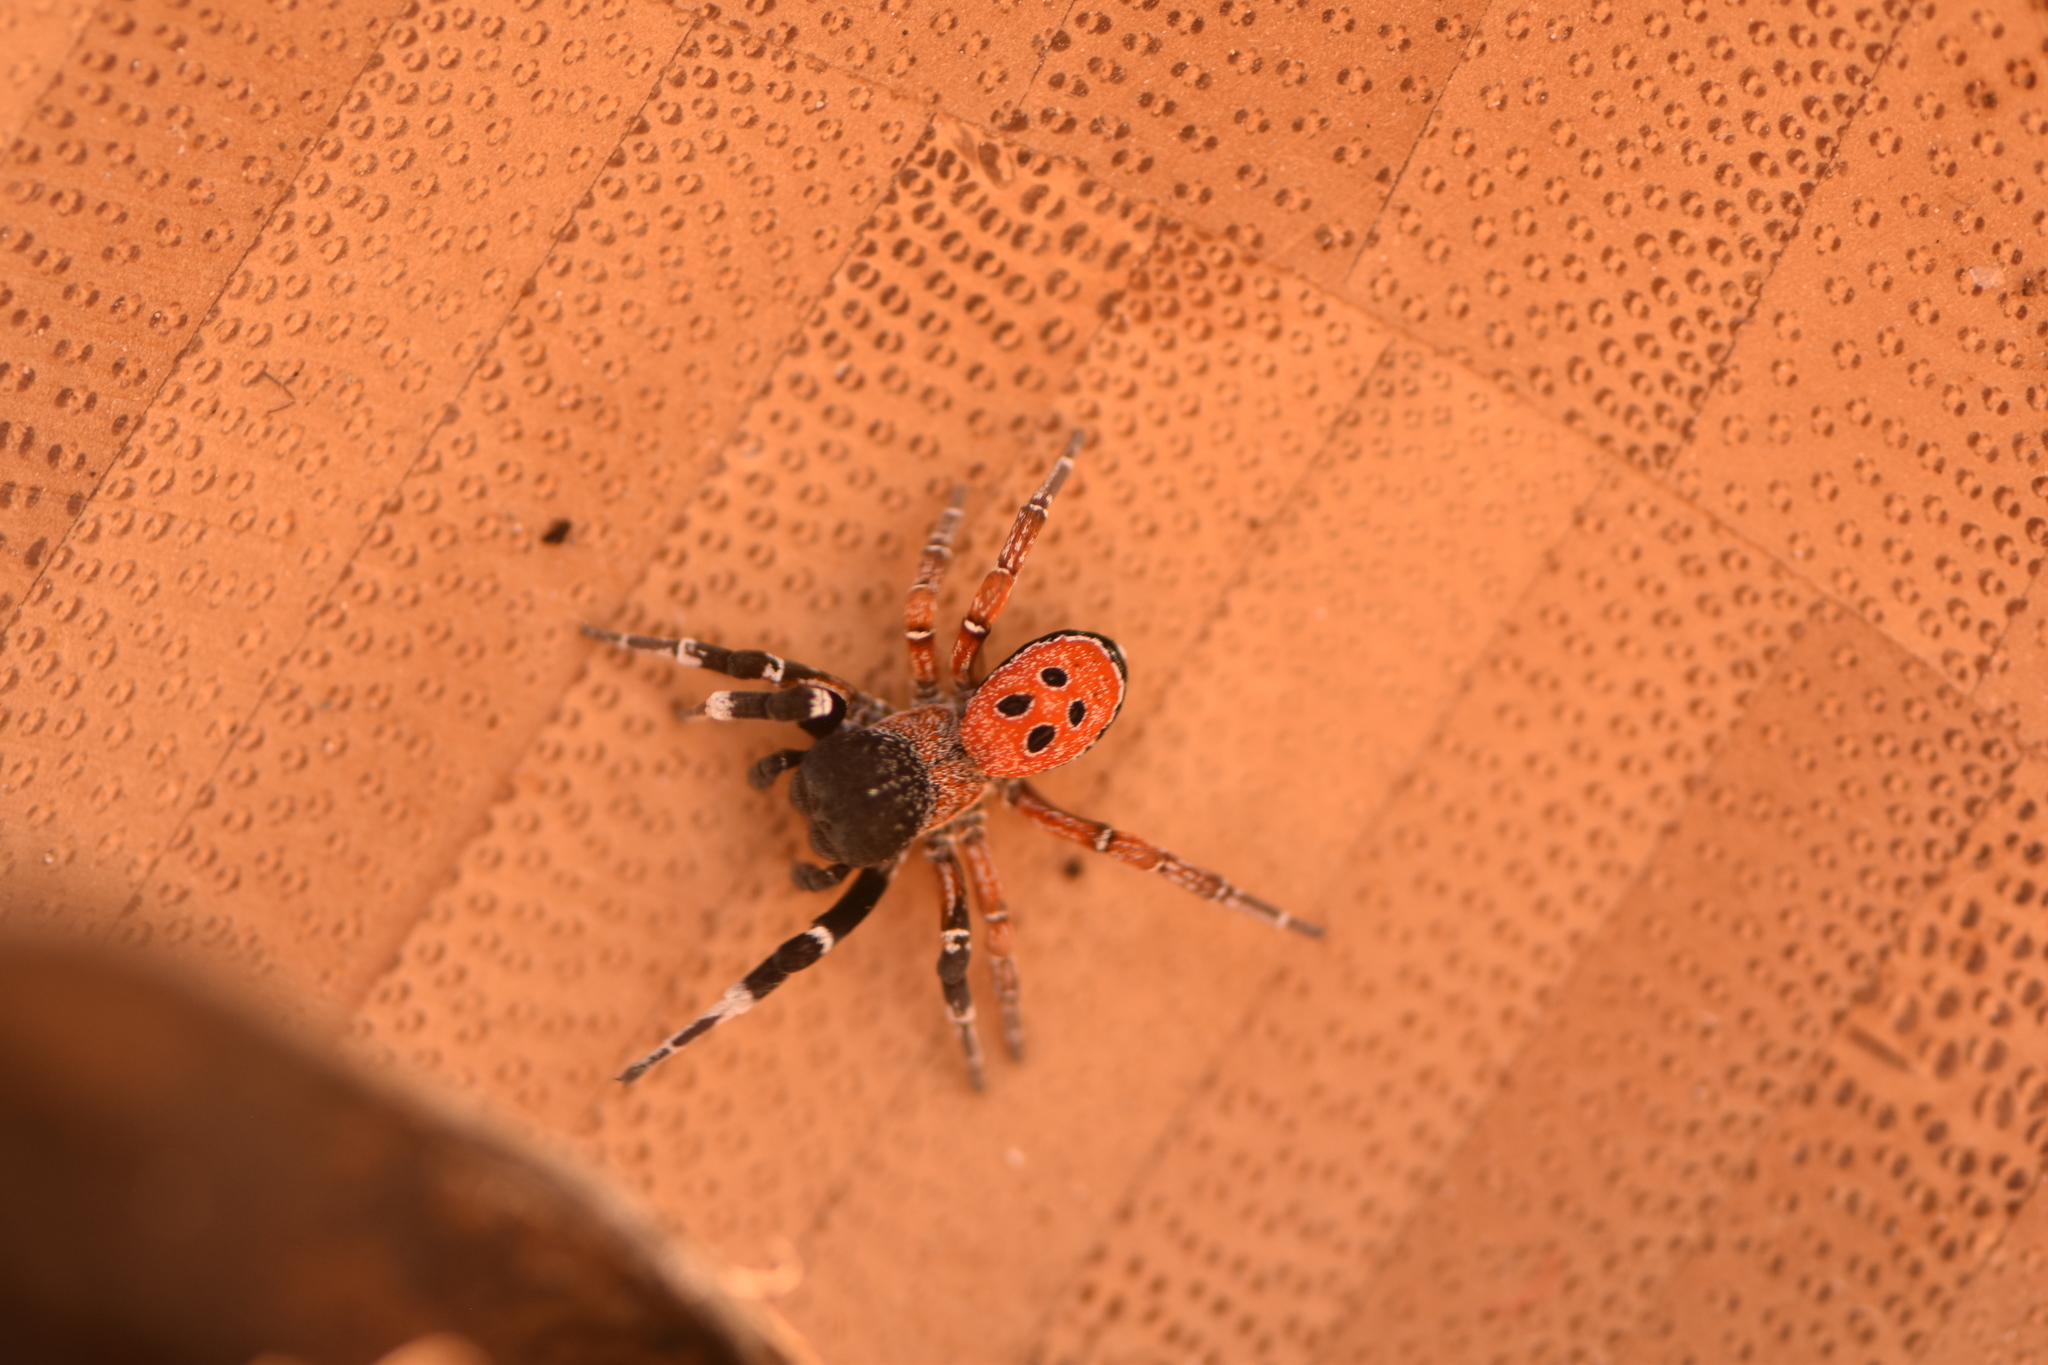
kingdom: Animalia
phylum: Arthropoda
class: Arachnida
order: Araneae
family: Eresidae
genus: Eresus
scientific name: Eresus solitarius
